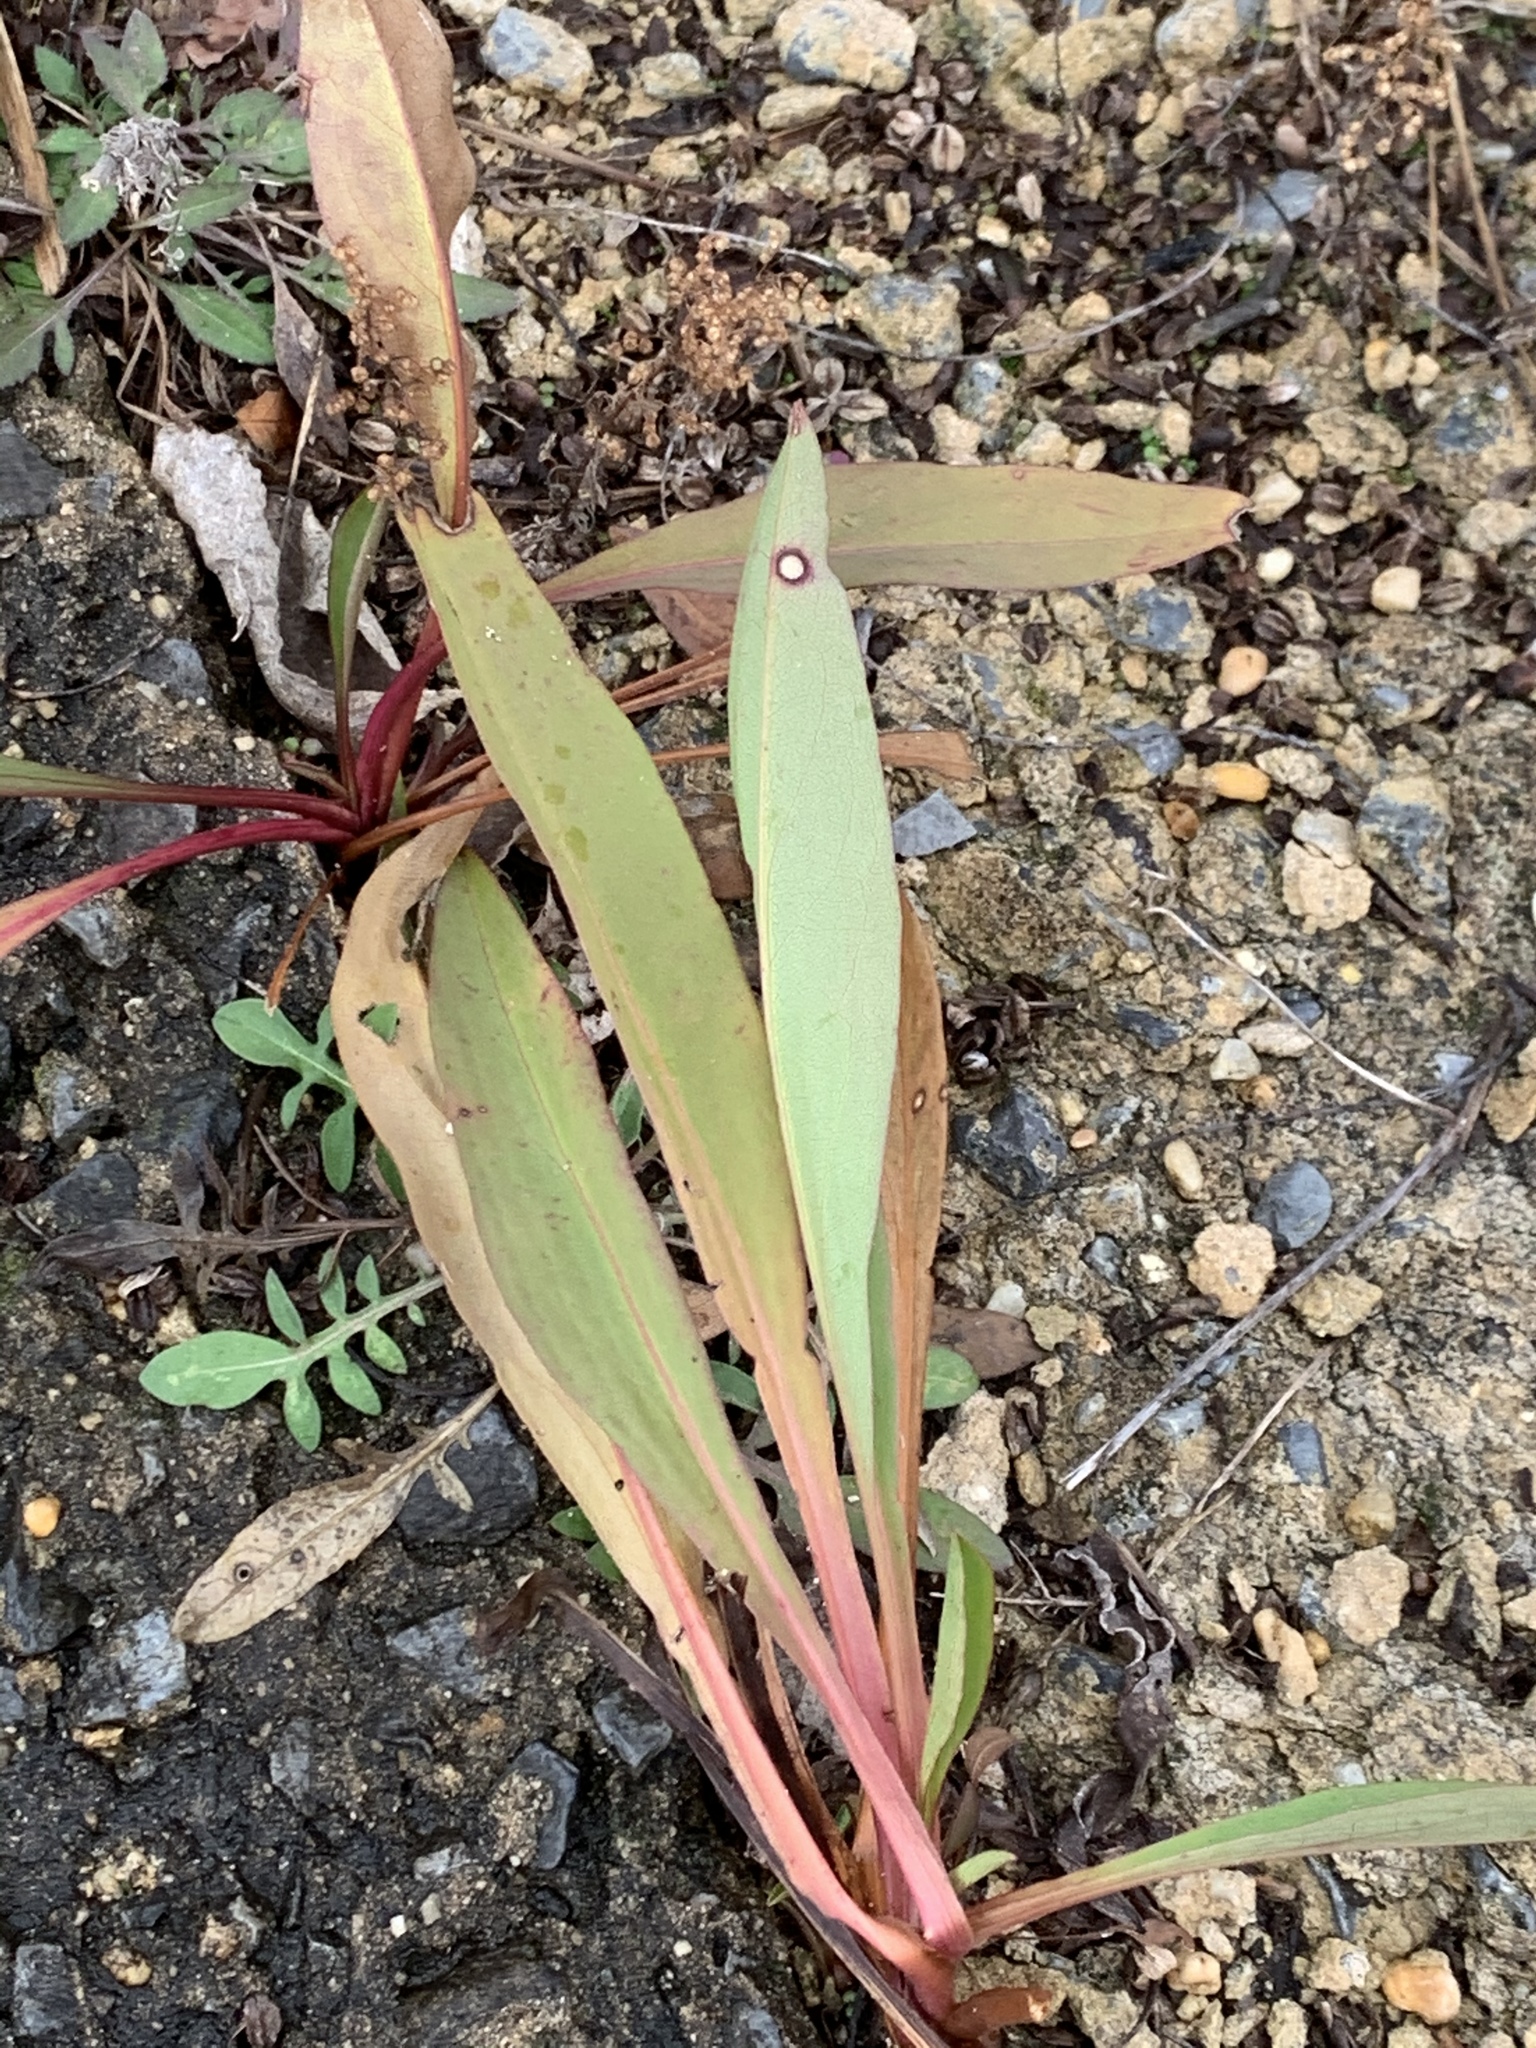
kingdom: Plantae
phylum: Tracheophyta
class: Magnoliopsida
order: Asterales
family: Asteraceae
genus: Solidago
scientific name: Solidago sempervirens
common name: Salt-marsh goldenrod
